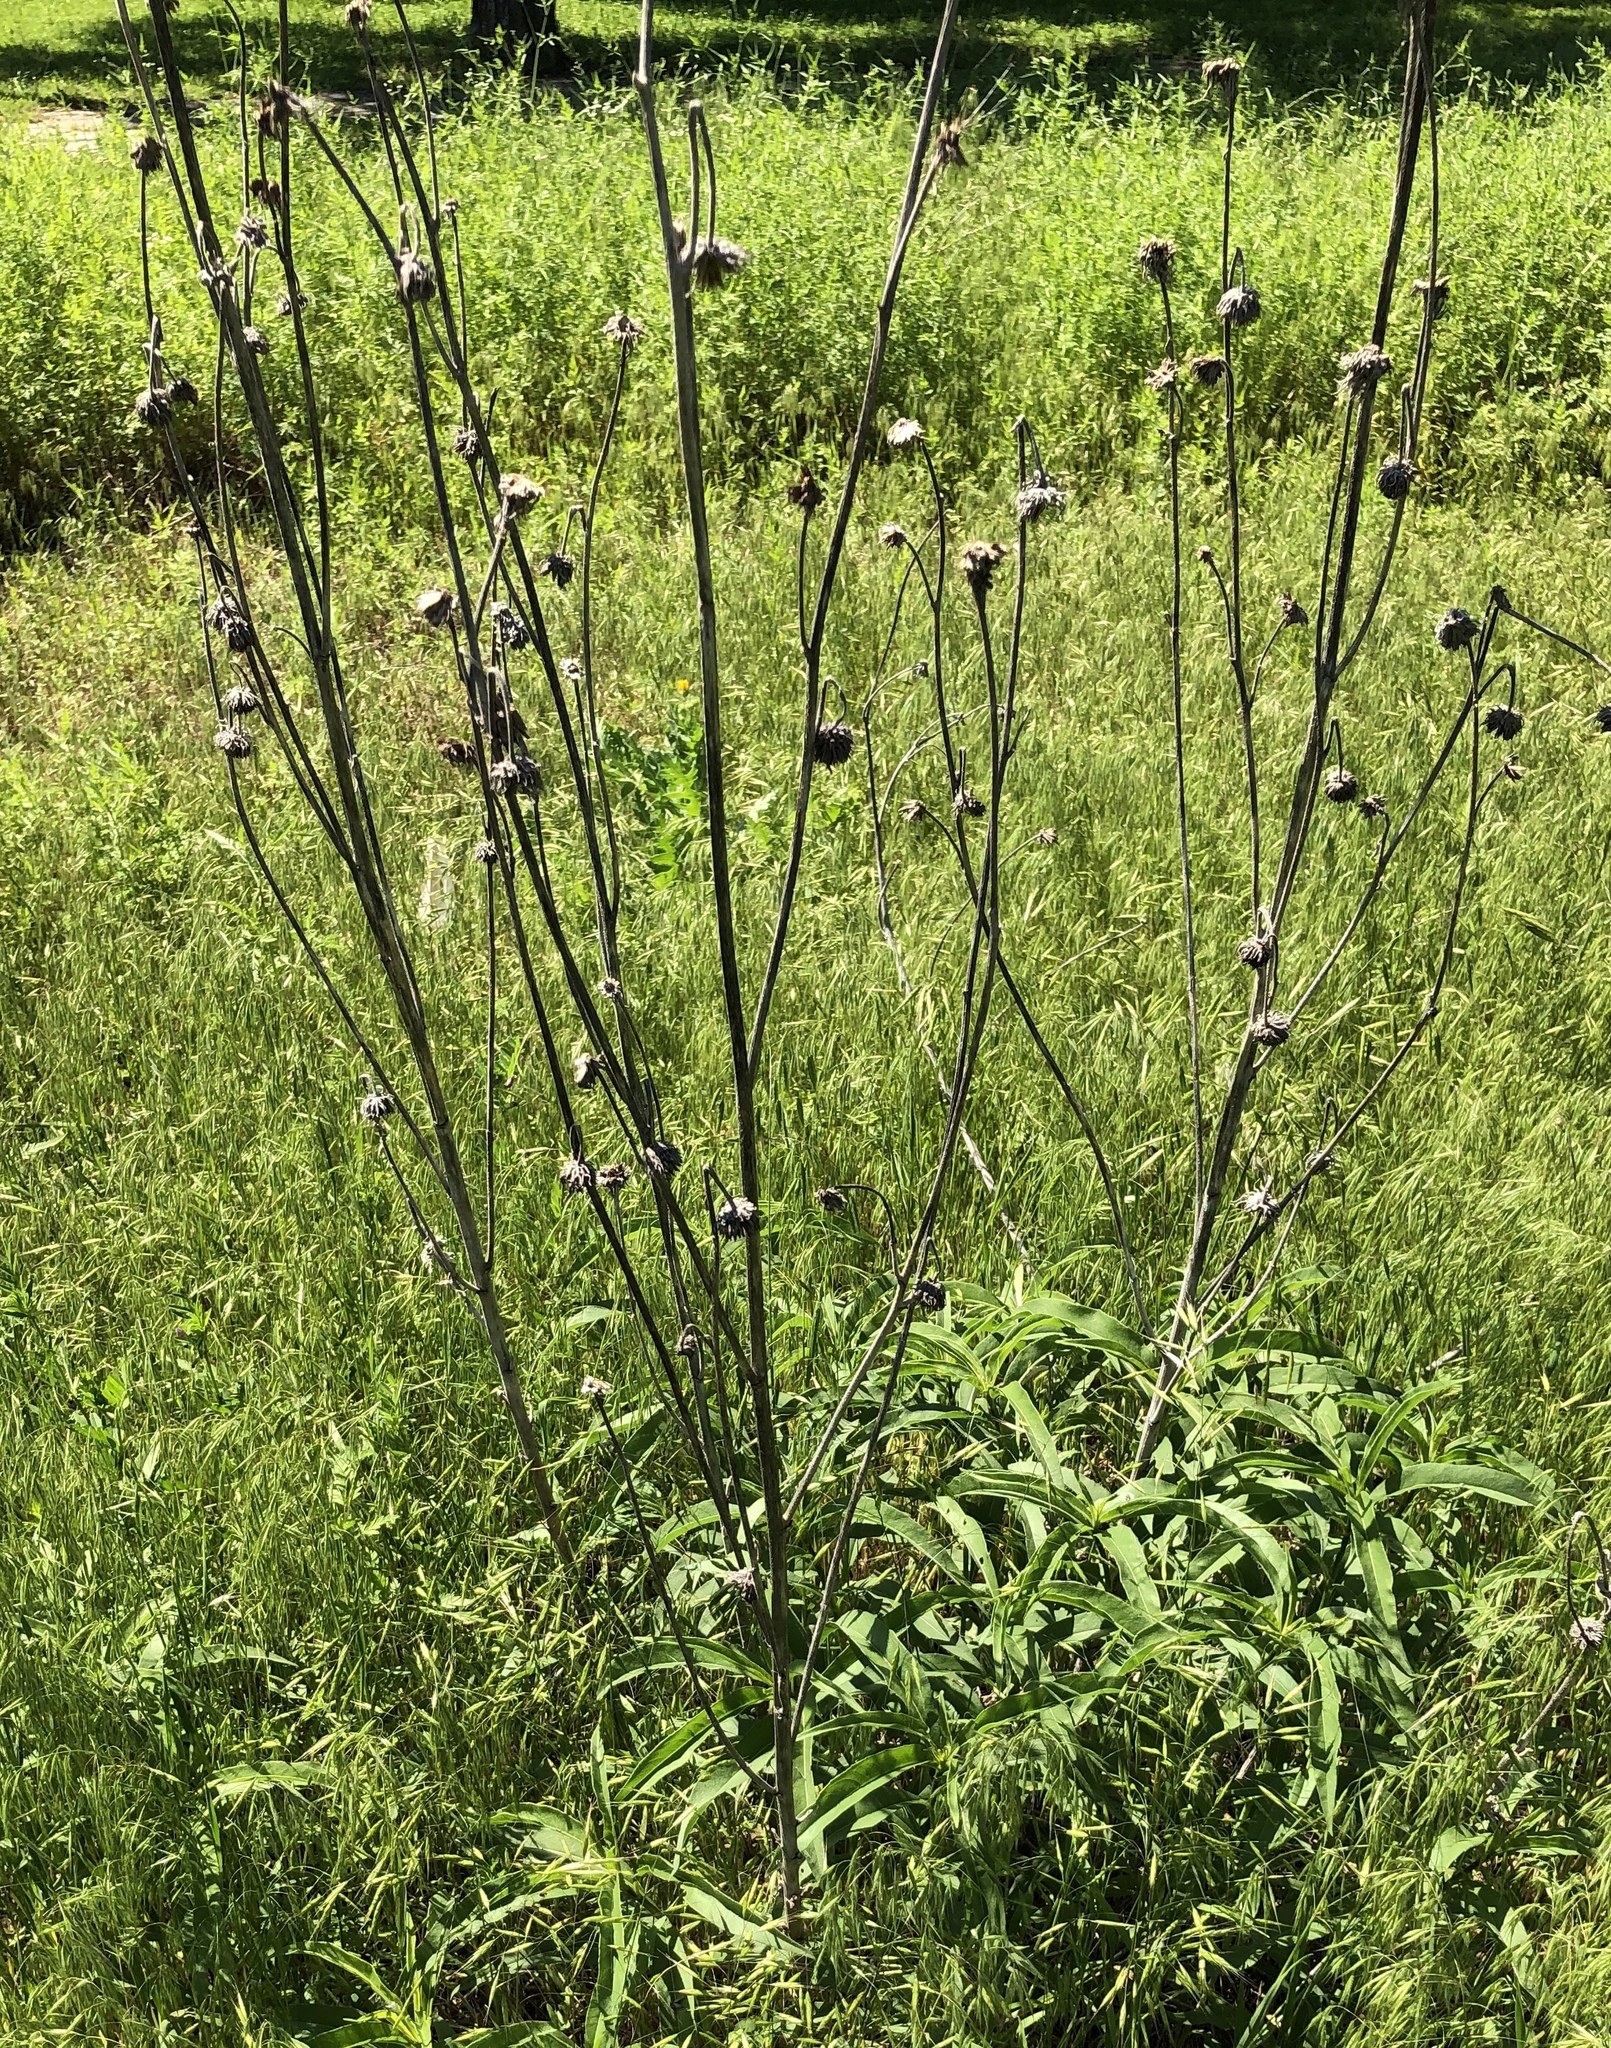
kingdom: Plantae
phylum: Tracheophyta
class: Magnoliopsida
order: Asterales
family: Asteraceae
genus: Helianthus
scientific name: Helianthus maximiliani
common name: Maximilian's sunflower
